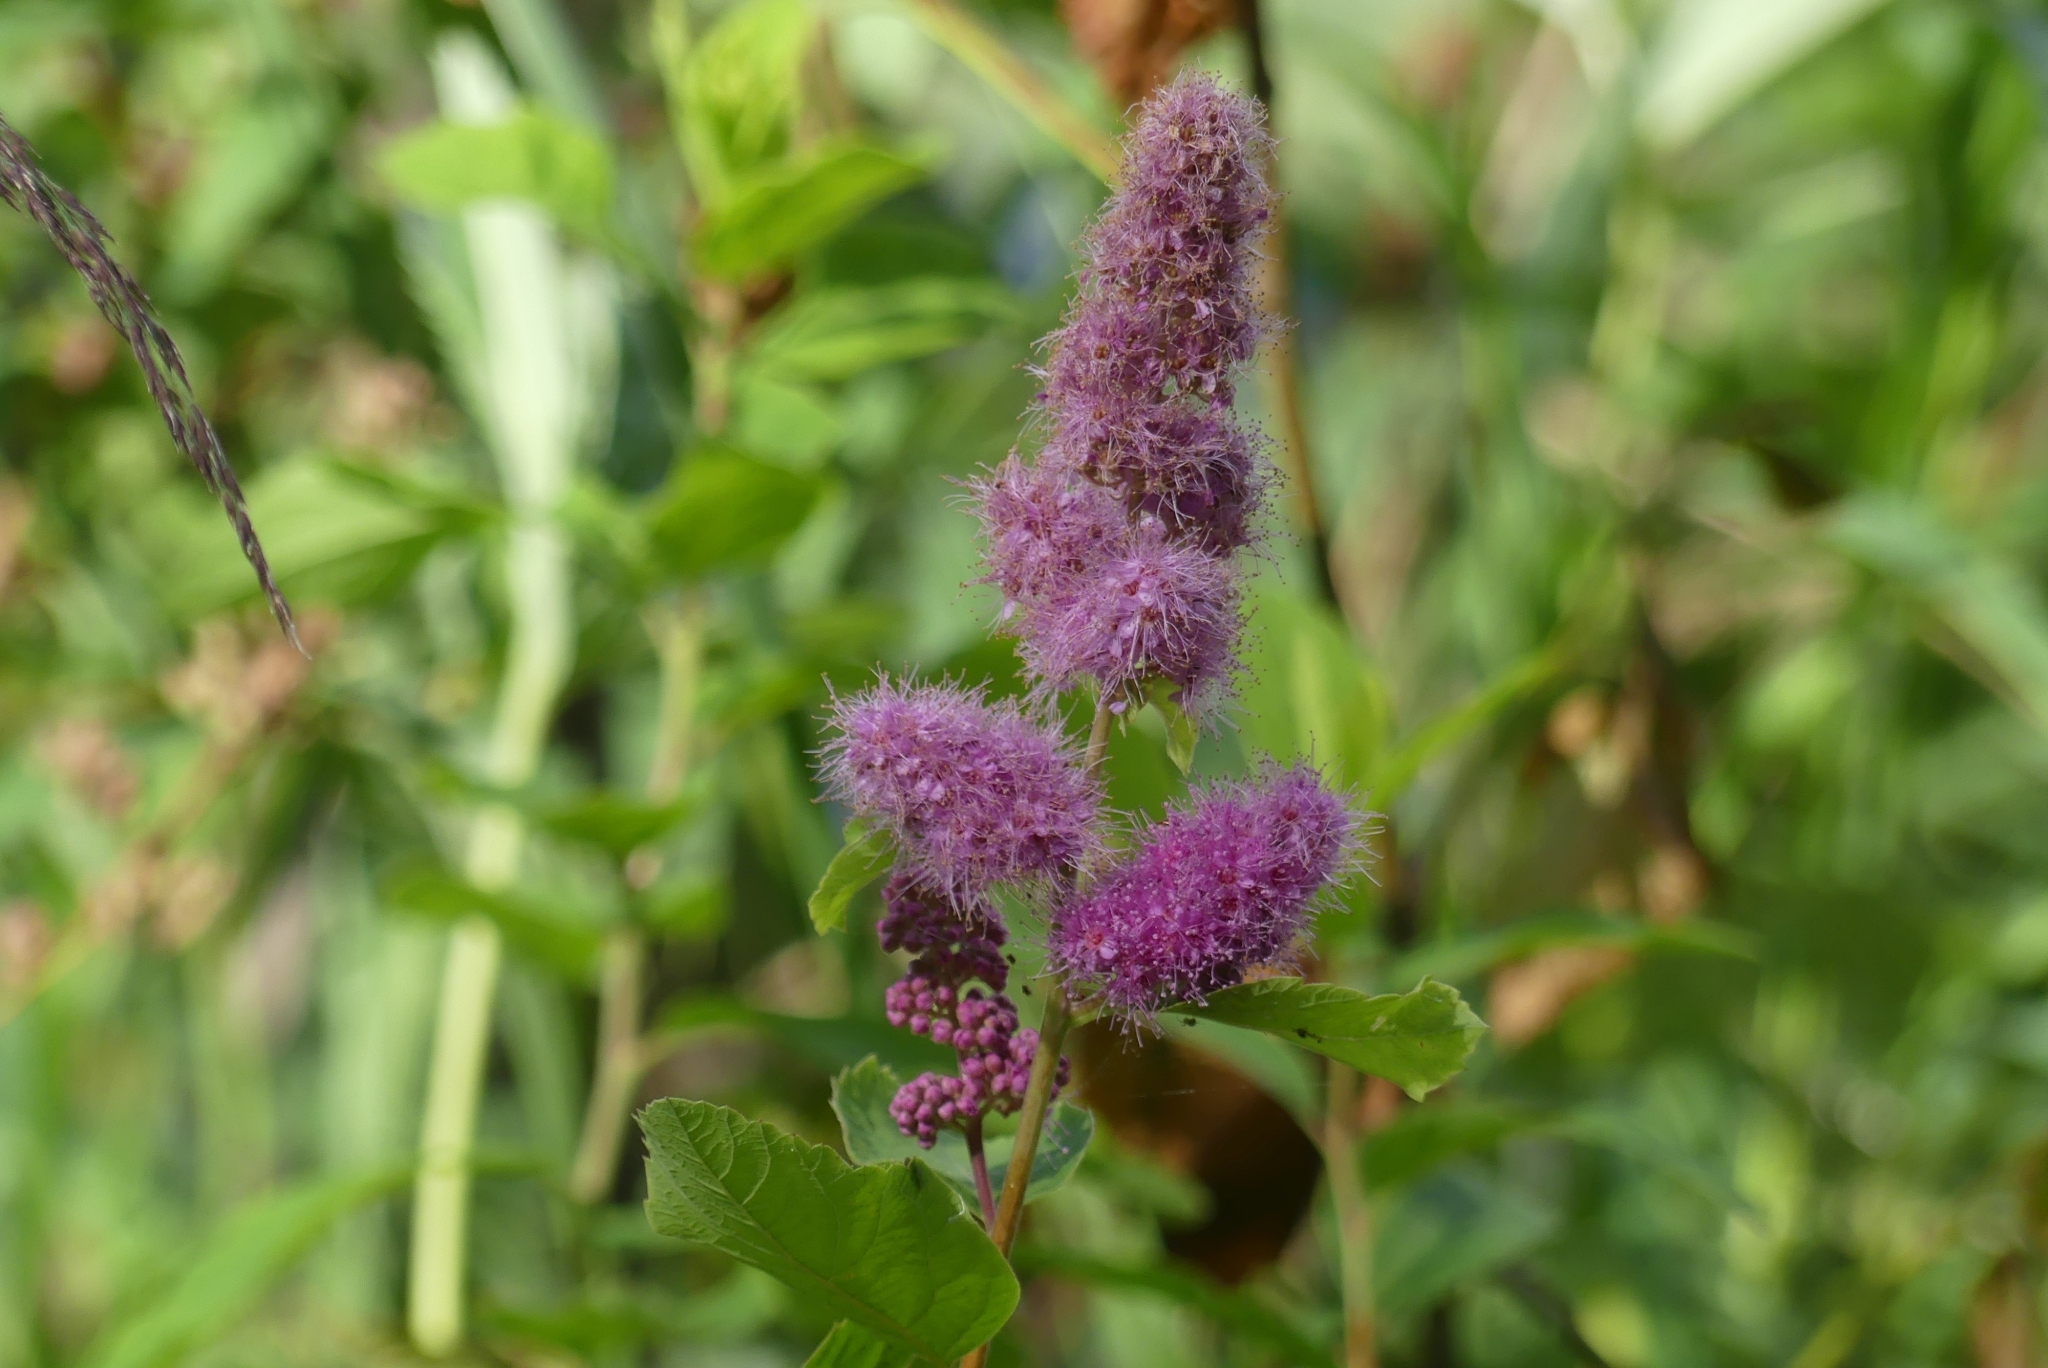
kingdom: Plantae
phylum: Tracheophyta
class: Magnoliopsida
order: Rosales
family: Rosaceae
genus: Spiraea
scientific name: Spiraea douglasii
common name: Steeplebush
